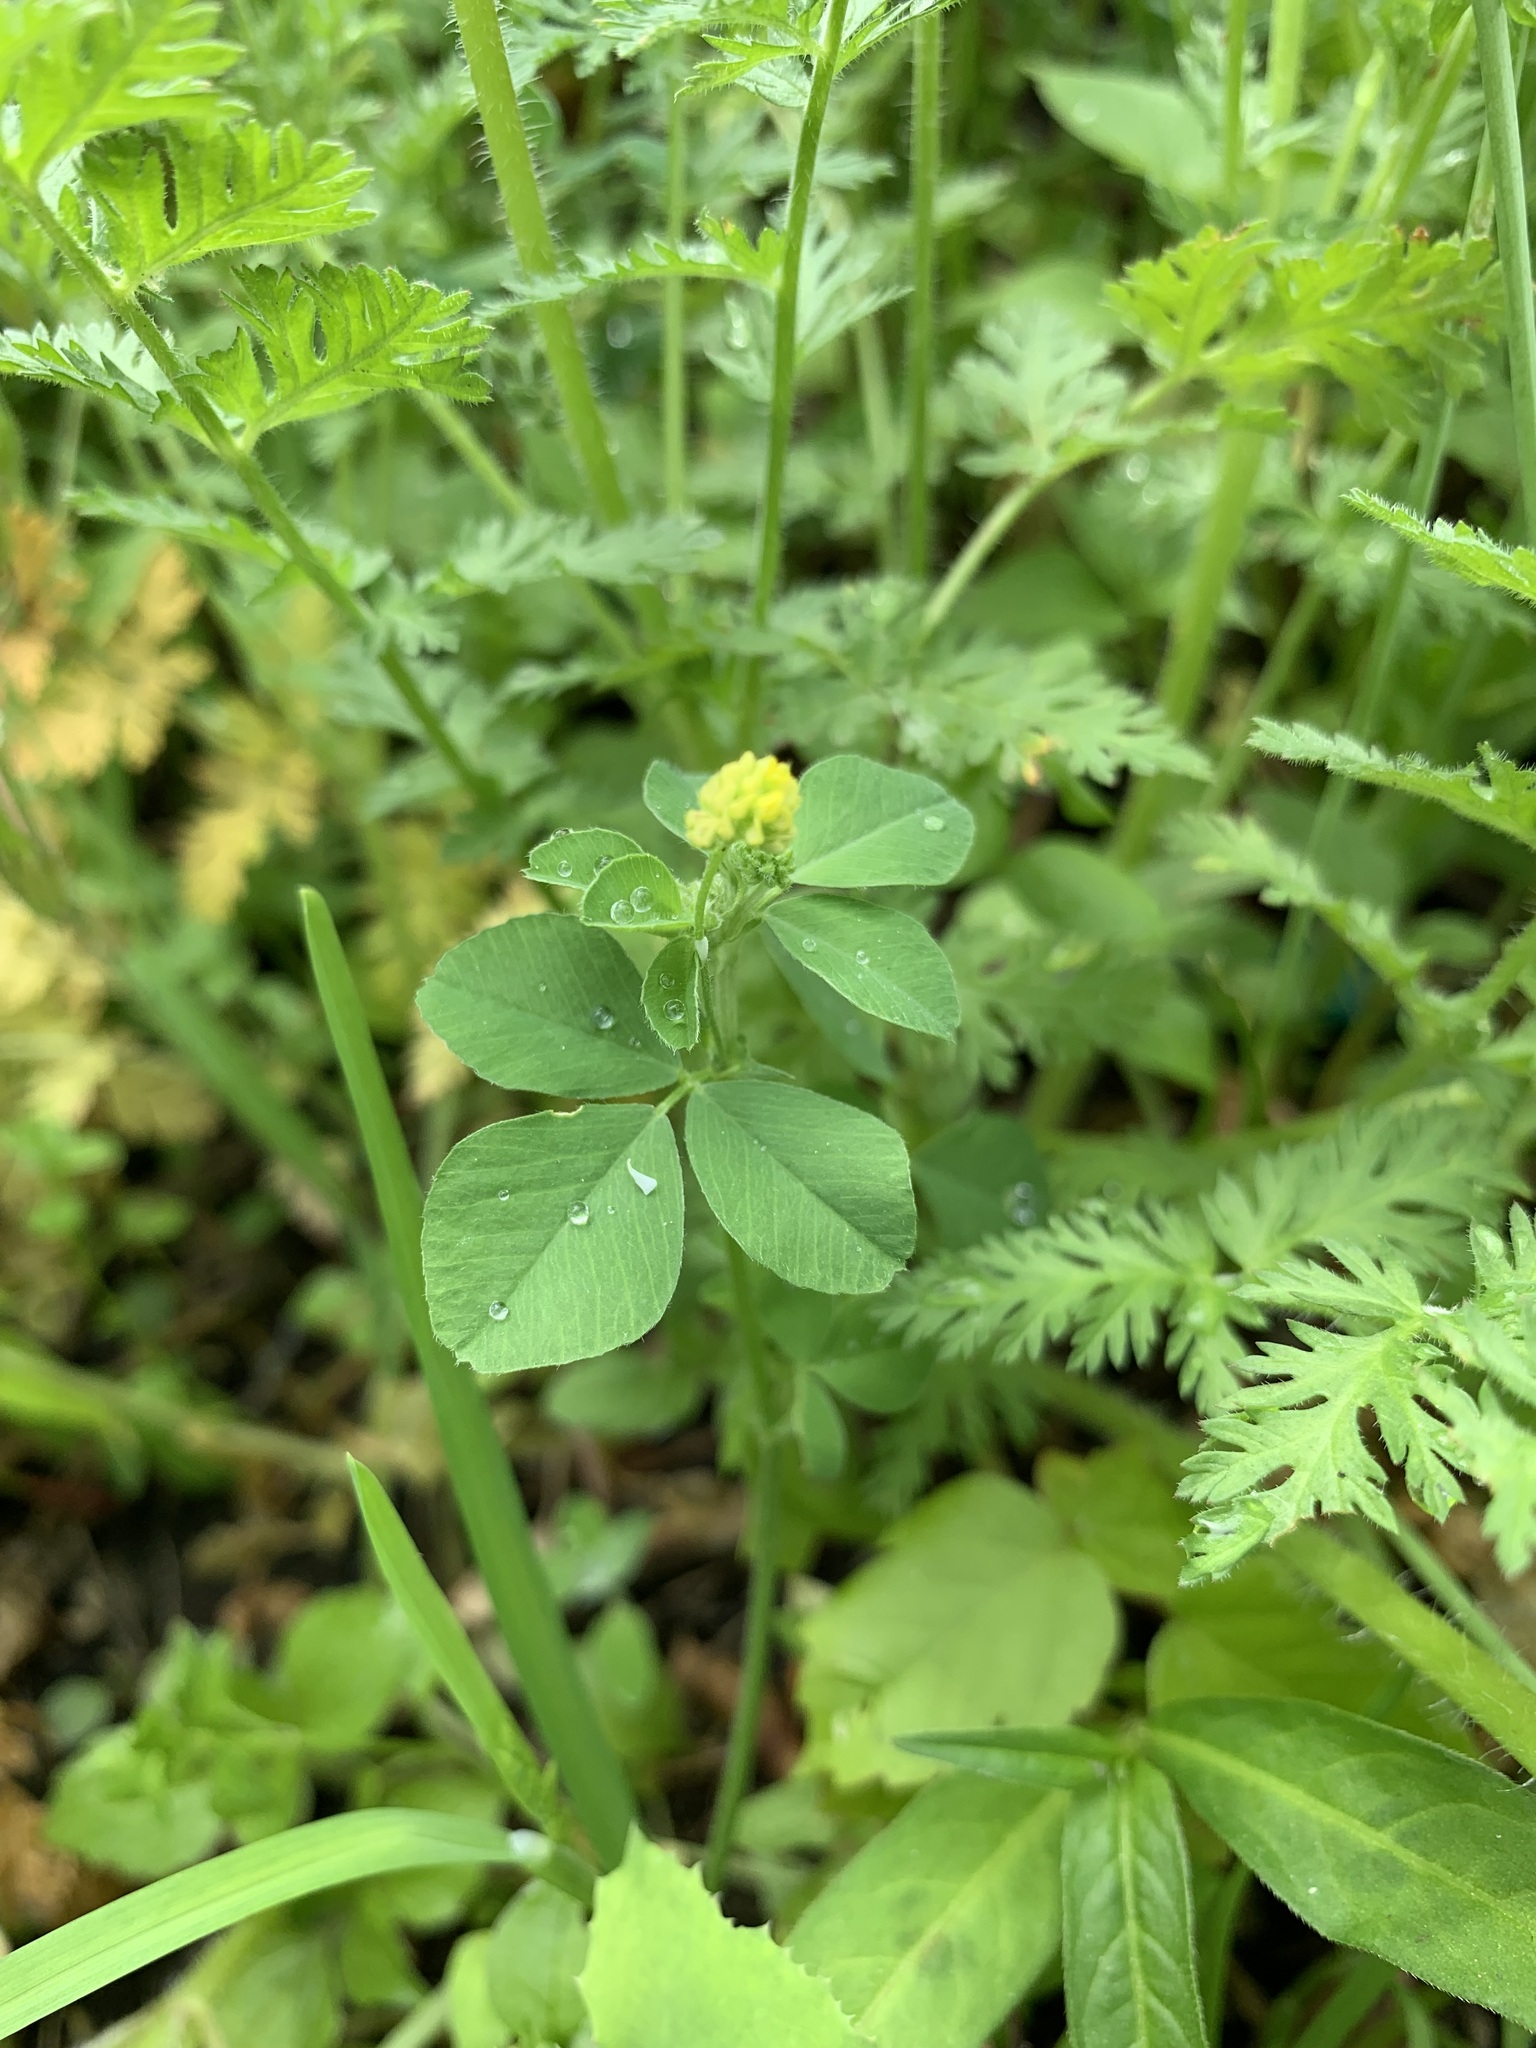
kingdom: Plantae
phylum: Tracheophyta
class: Magnoliopsida
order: Fabales
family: Fabaceae
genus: Medicago
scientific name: Medicago lupulina
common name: Black medick
